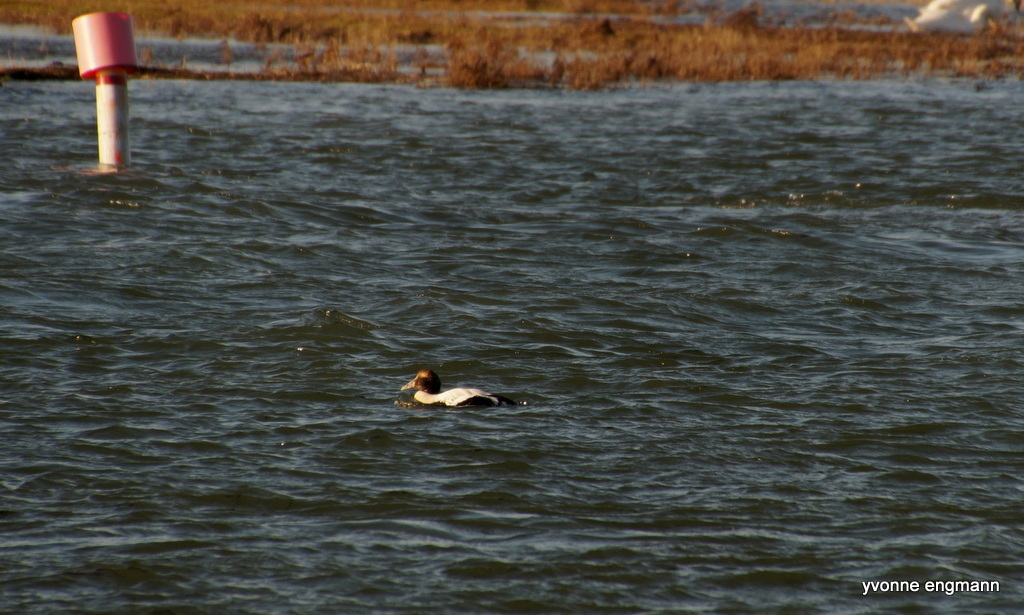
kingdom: Animalia
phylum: Chordata
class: Aves
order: Anseriformes
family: Anatidae
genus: Somateria
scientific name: Somateria mollissima
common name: Common eider
